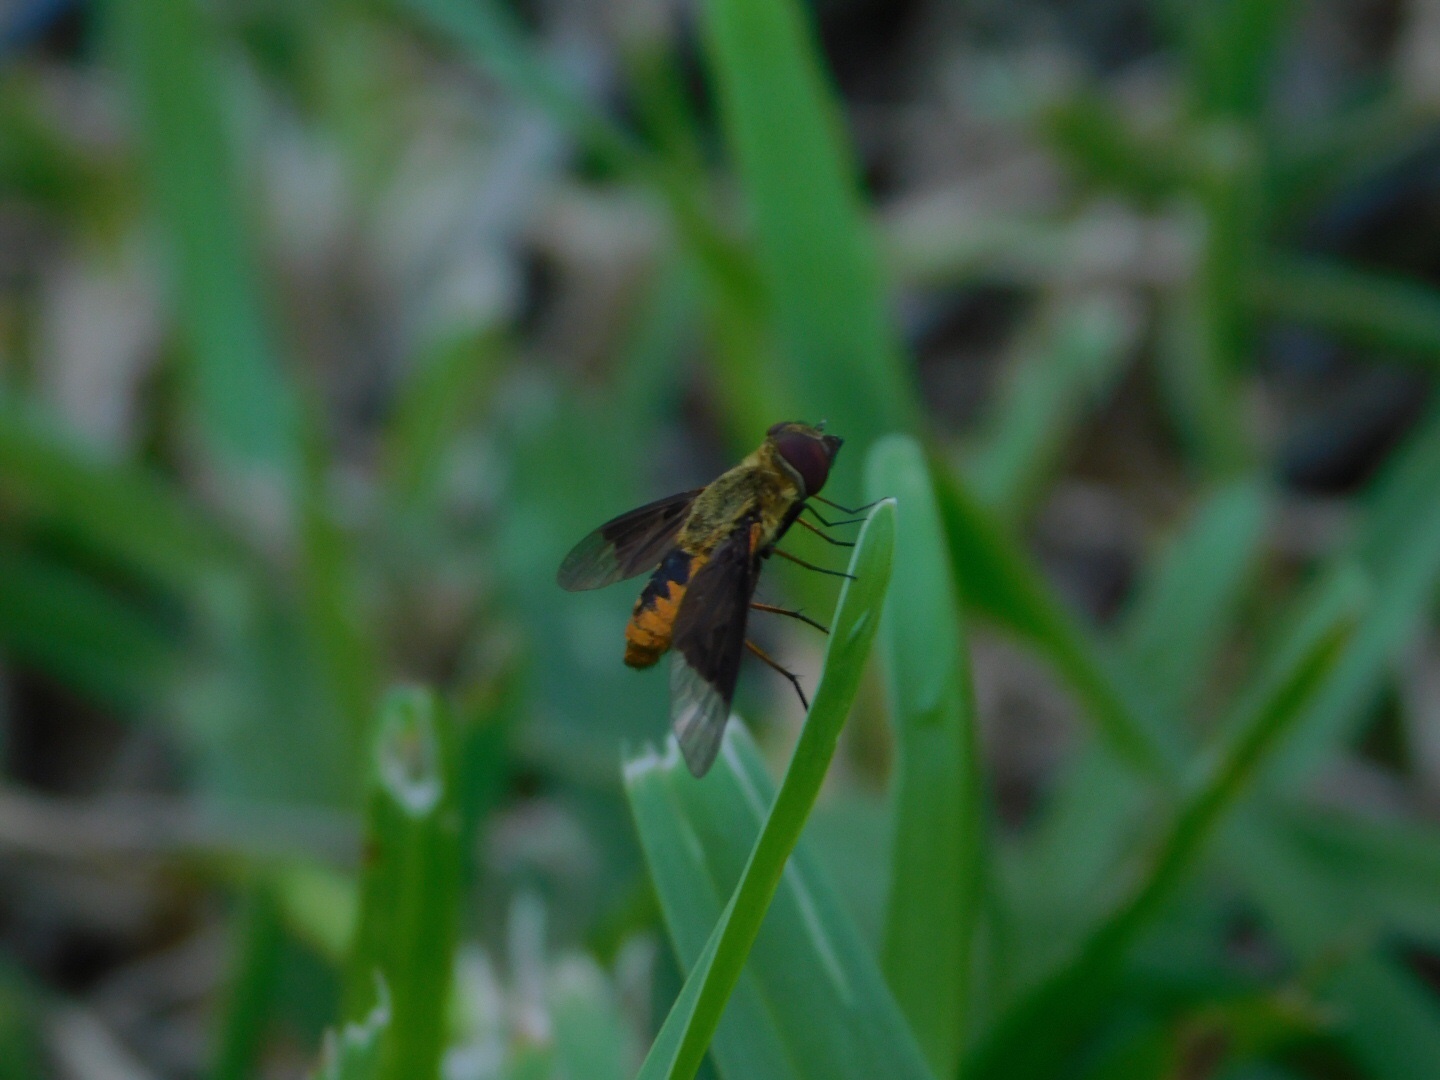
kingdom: Animalia
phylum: Arthropoda
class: Insecta
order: Diptera
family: Bombyliidae
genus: Chrysanthrax
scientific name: Chrysanthrax cypris
